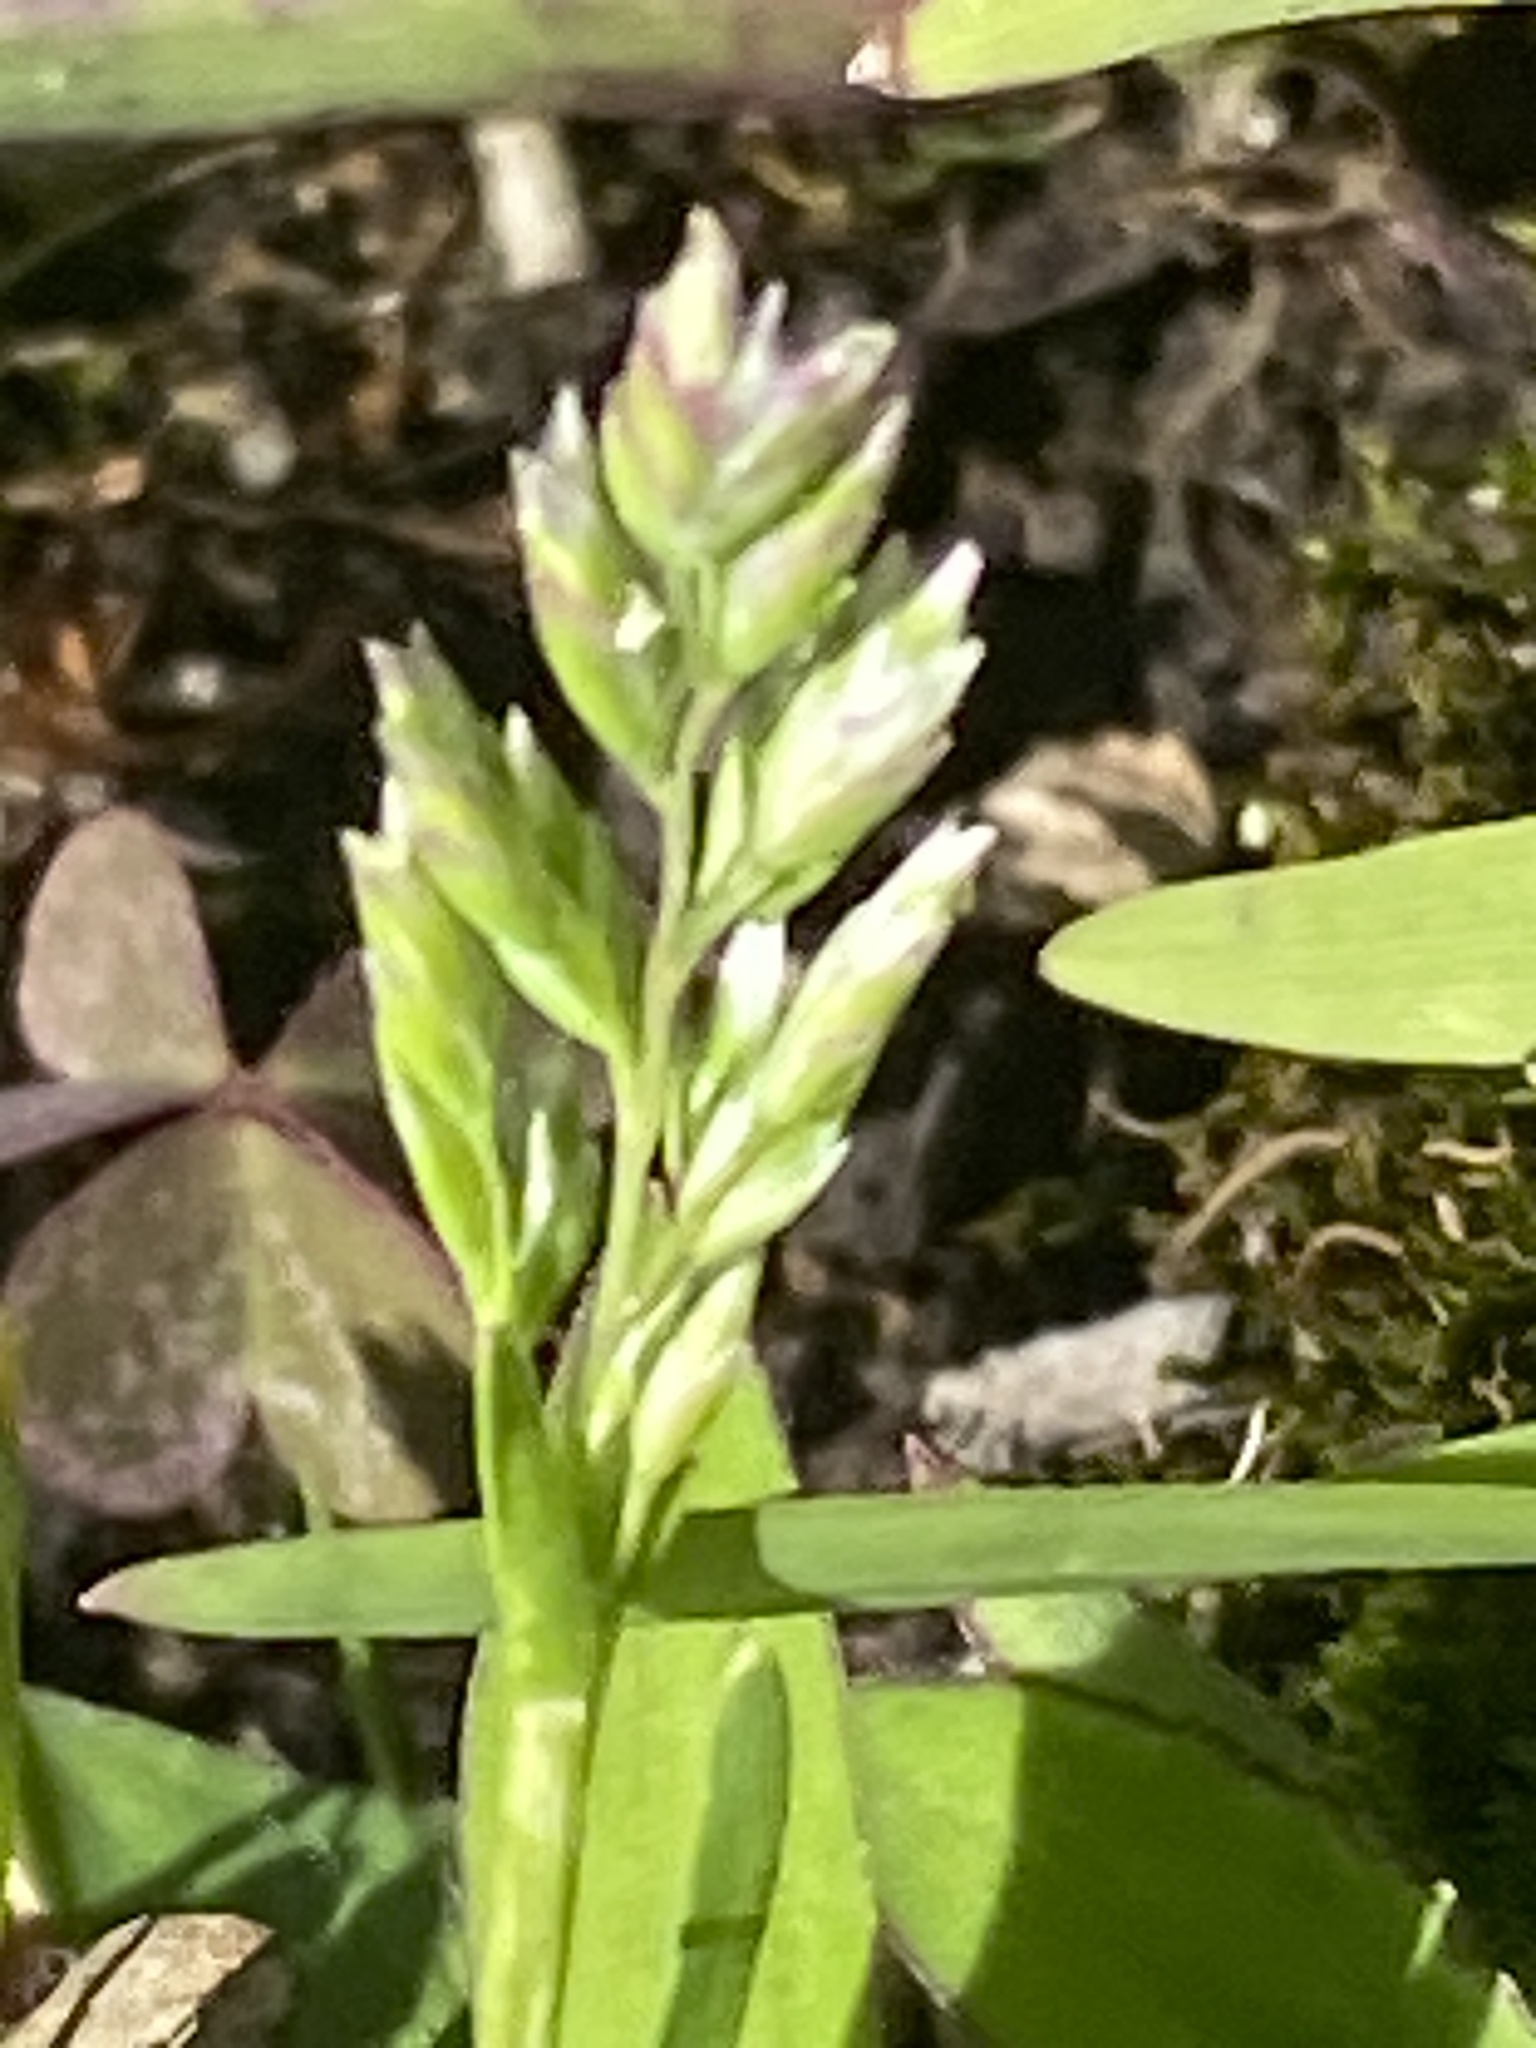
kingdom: Plantae
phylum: Tracheophyta
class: Liliopsida
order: Poales
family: Poaceae
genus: Poa
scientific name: Poa annua
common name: Annual bluegrass
